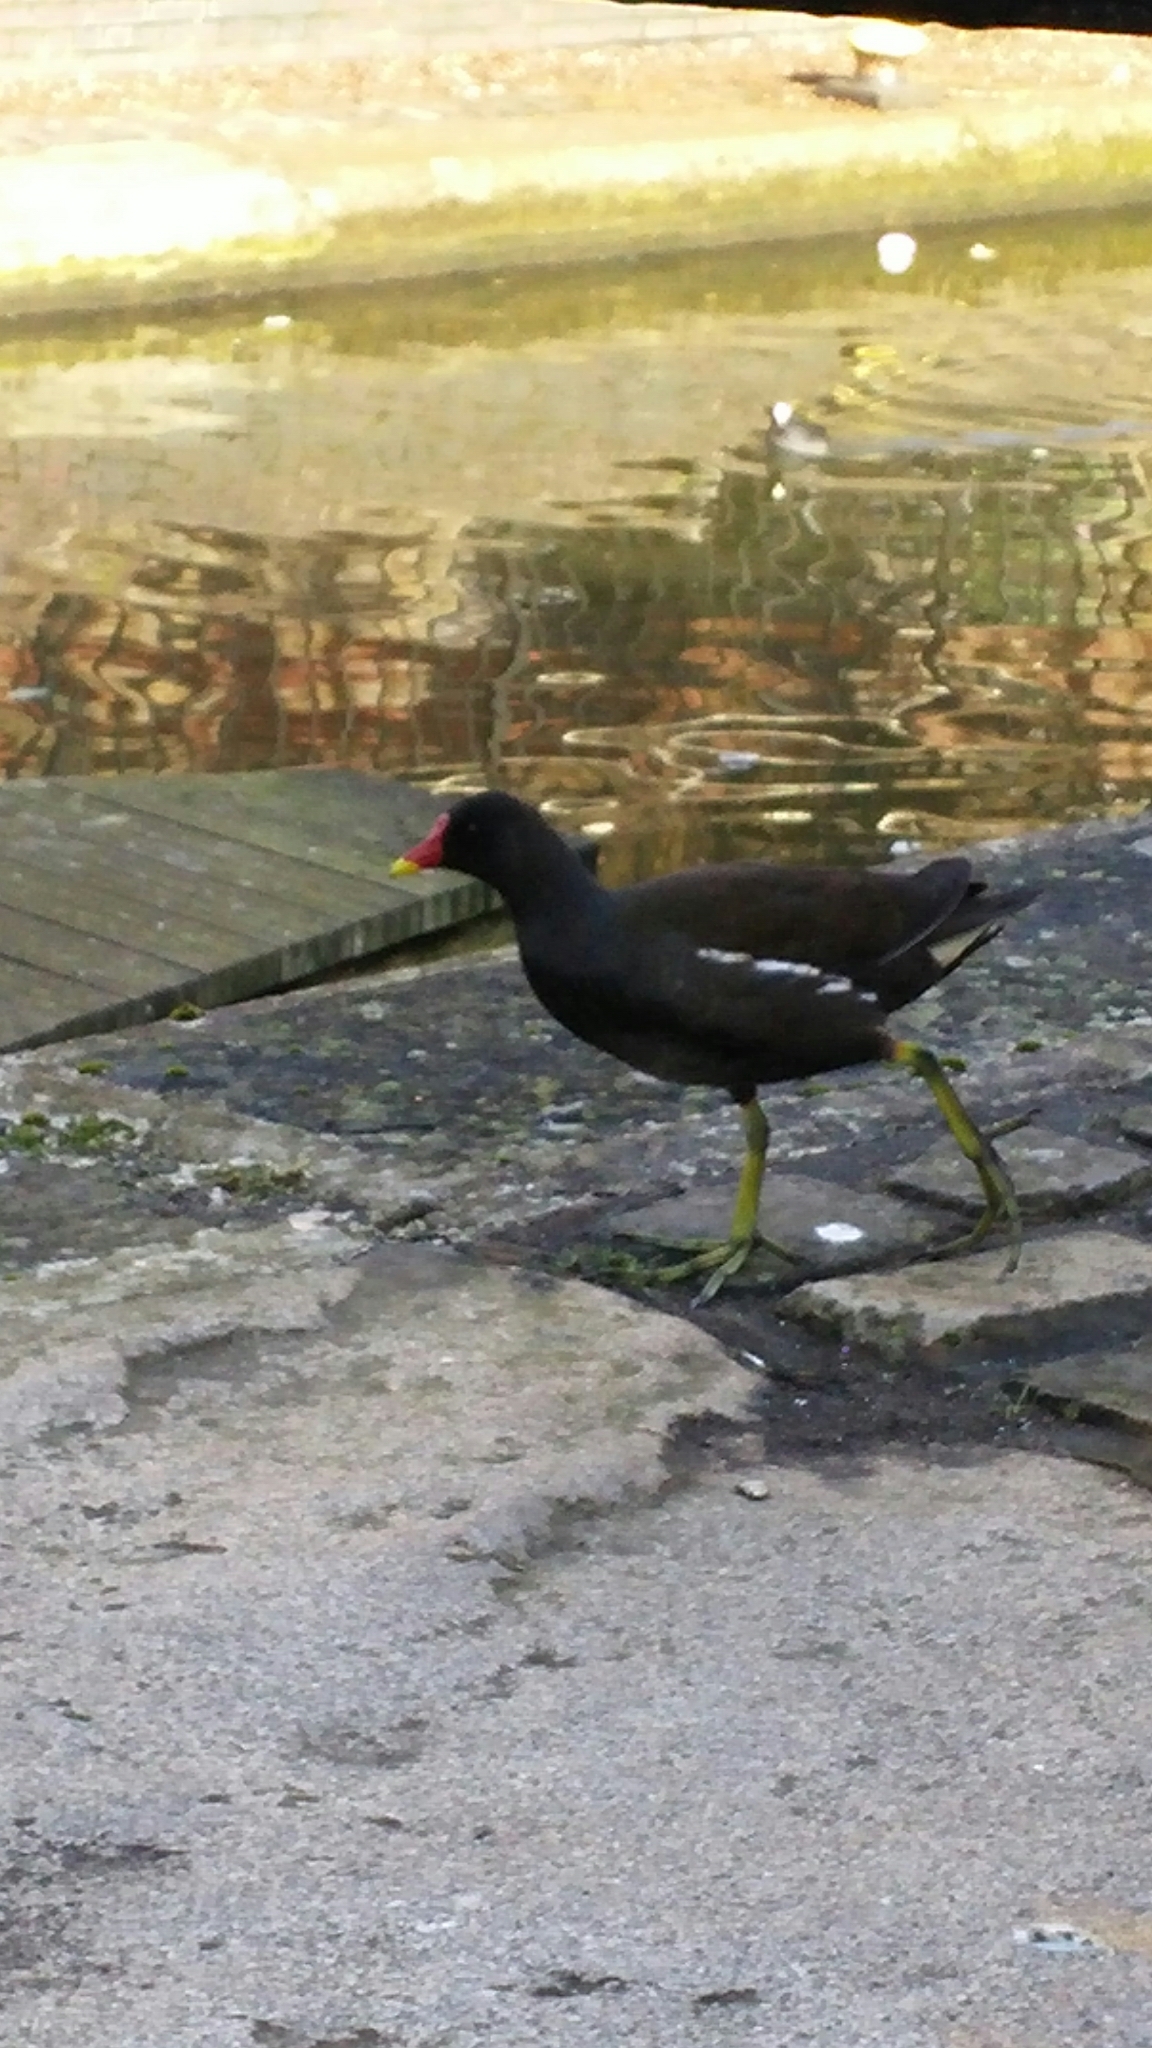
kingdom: Animalia
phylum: Chordata
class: Aves
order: Gruiformes
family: Rallidae
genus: Gallinula
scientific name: Gallinula chloropus
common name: Common moorhen
